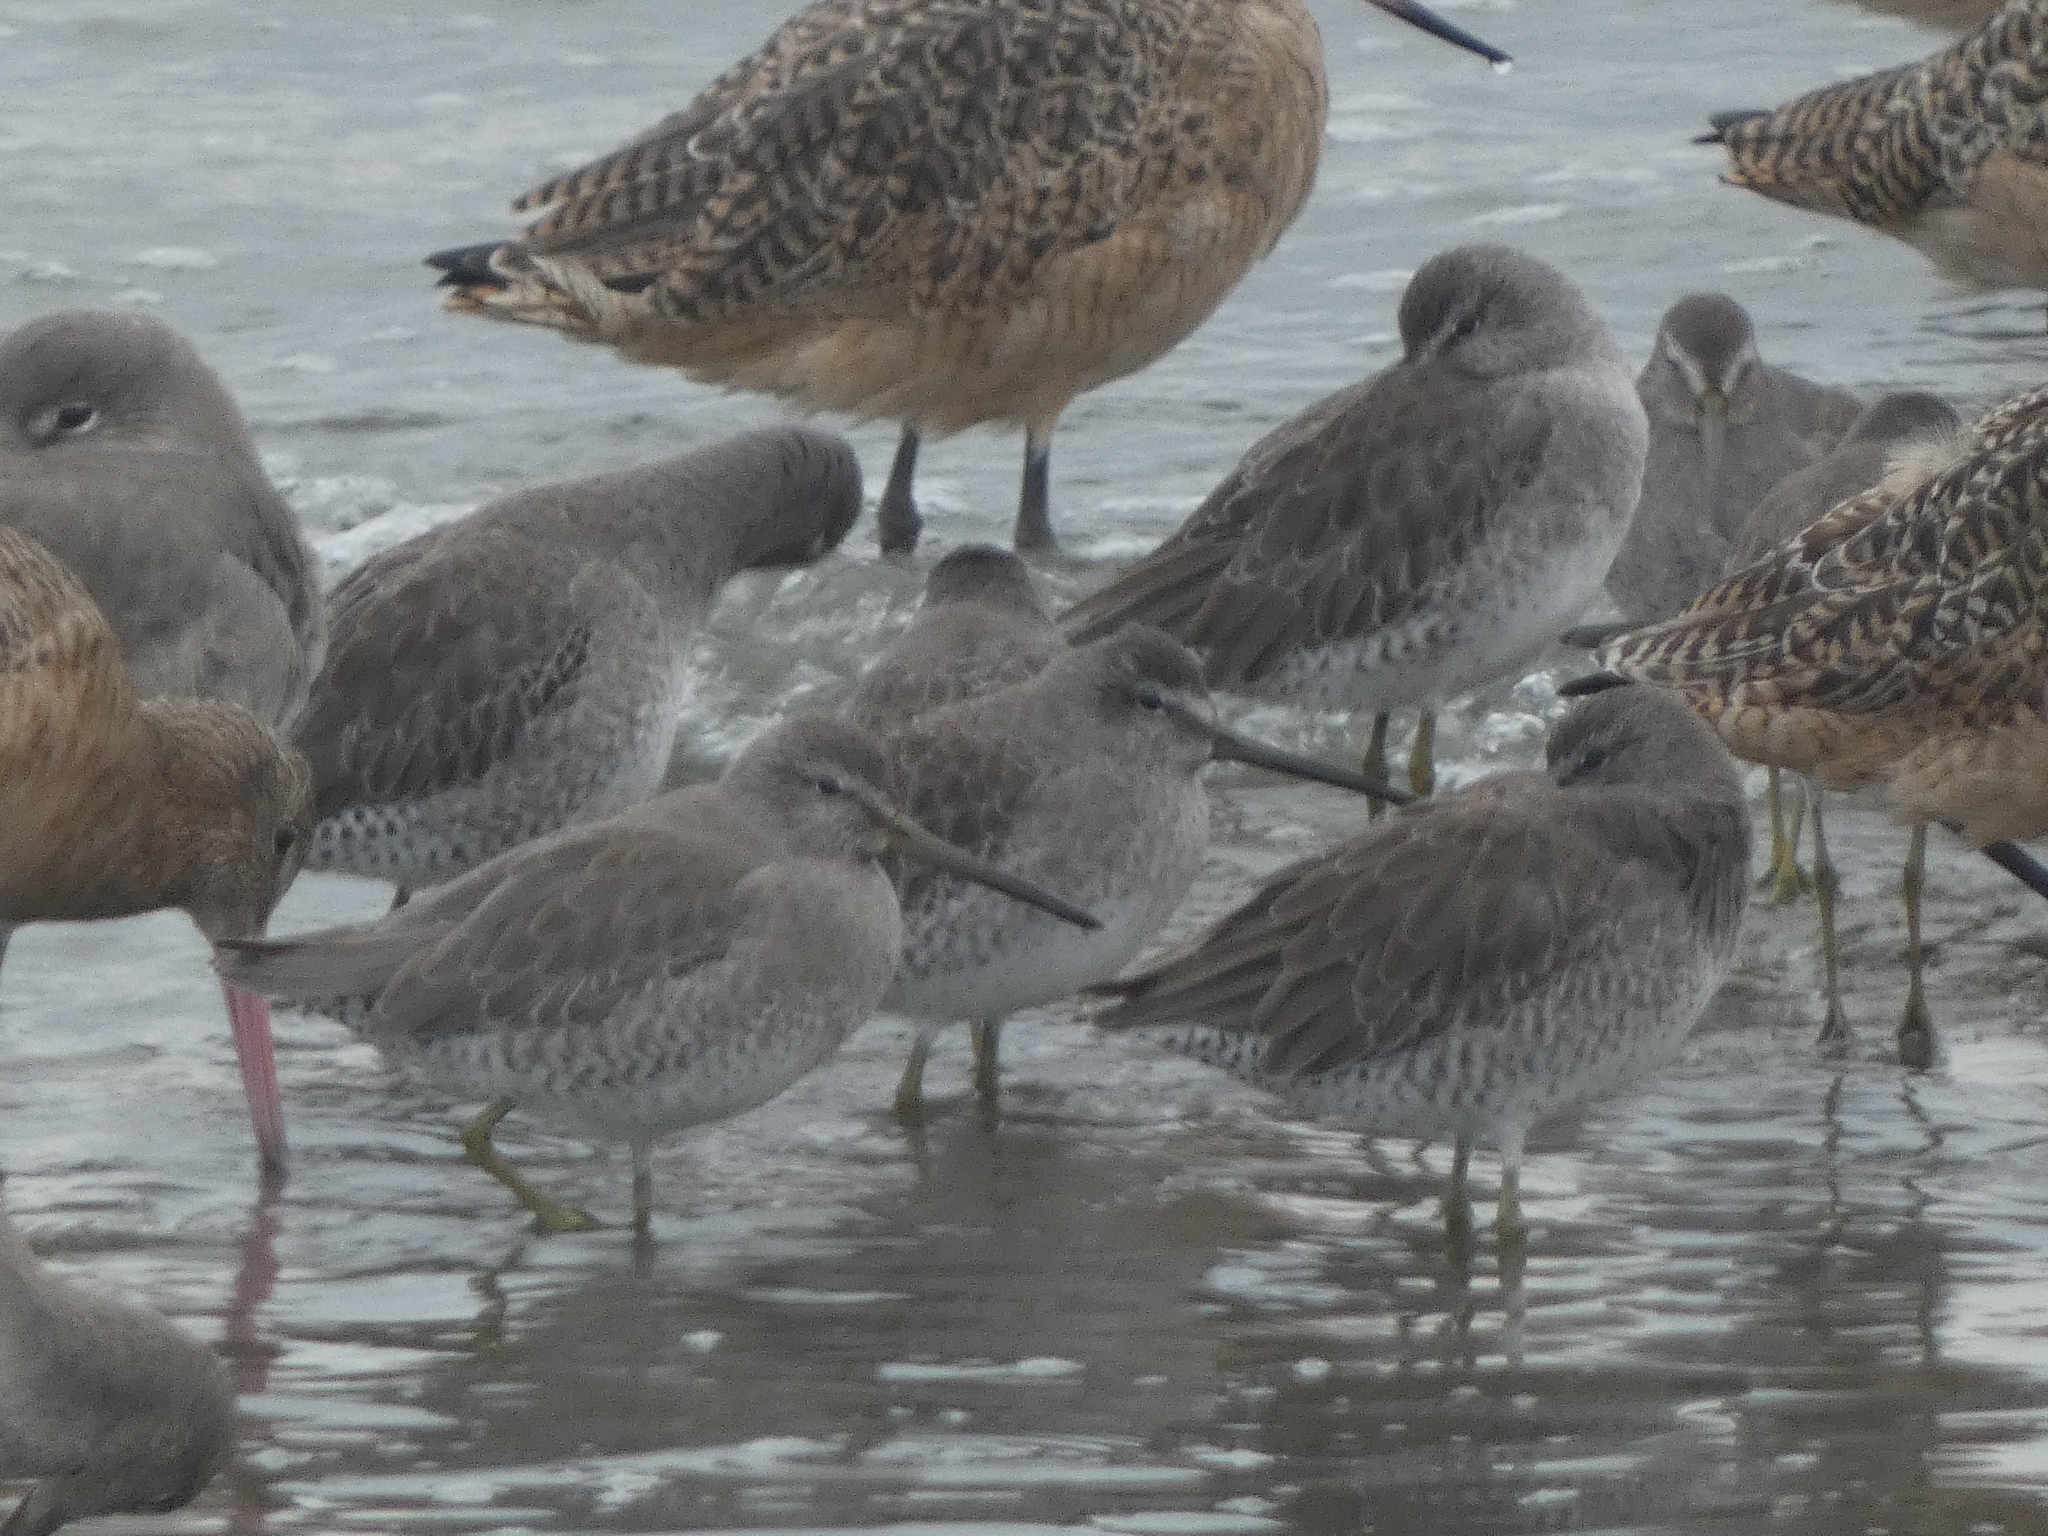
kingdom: Animalia
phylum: Chordata
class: Aves
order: Charadriiformes
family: Scolopacidae
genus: Limnodromus
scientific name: Limnodromus griseus
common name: Short-billed dowitcher
